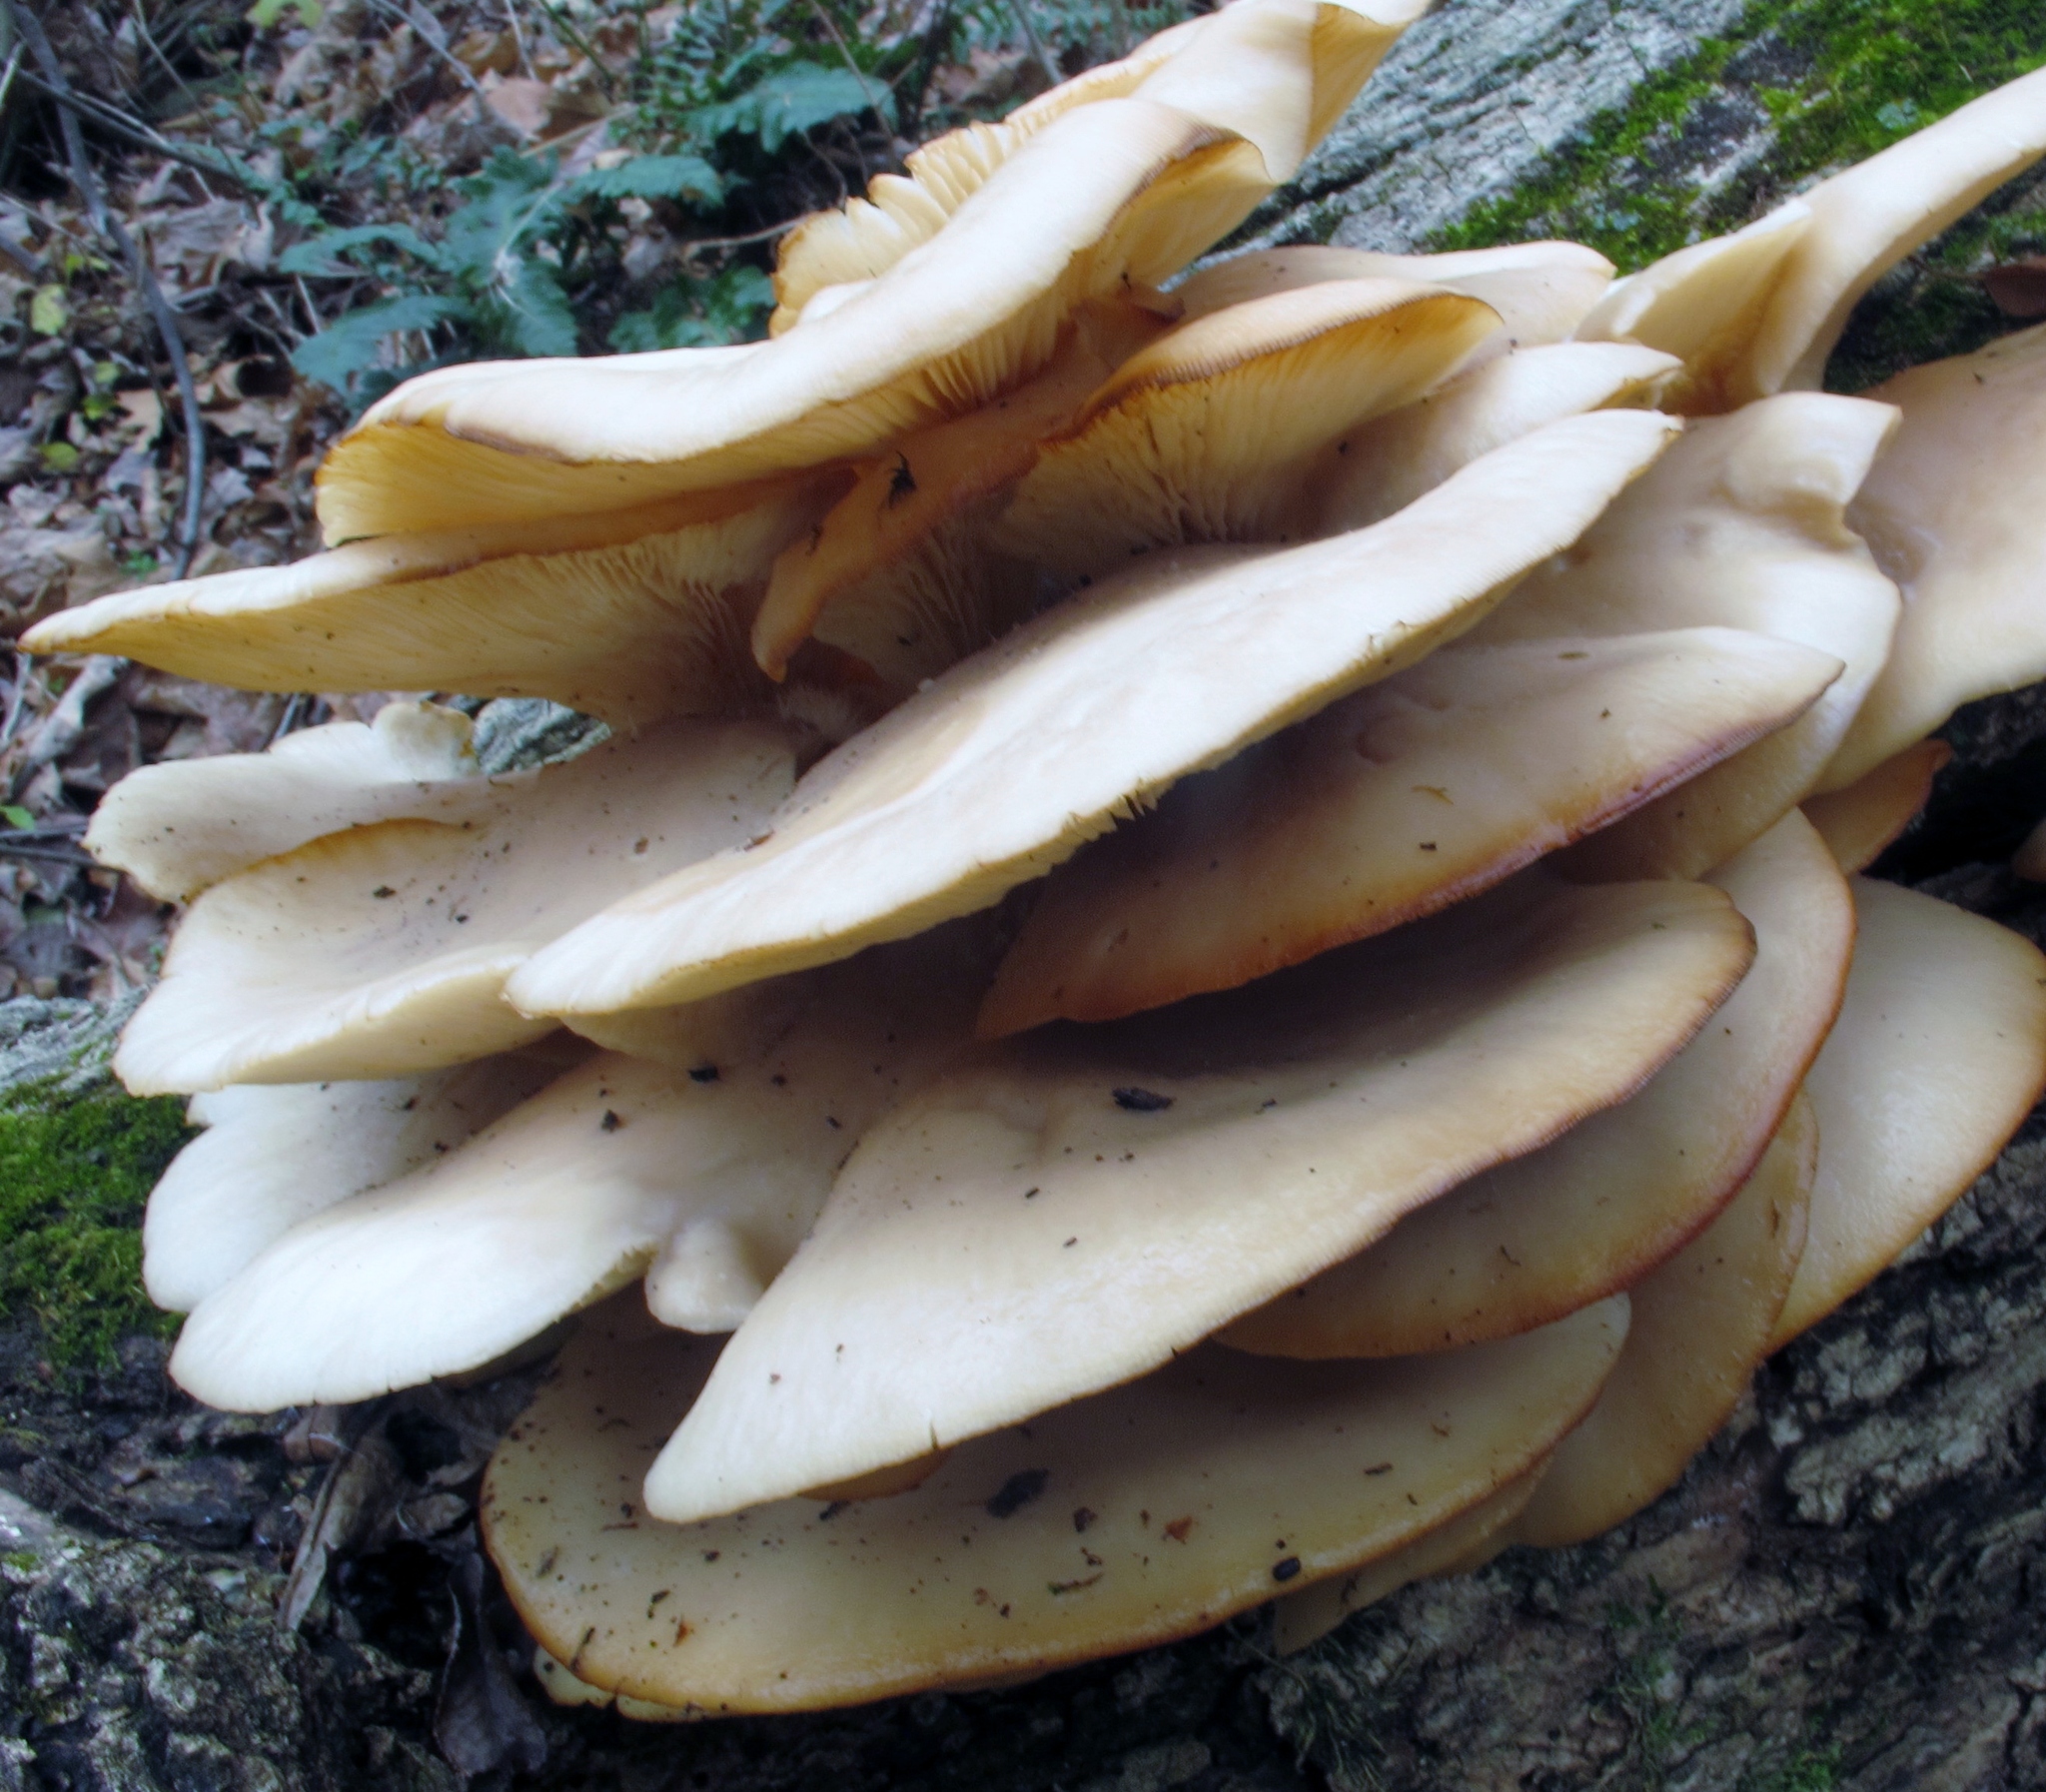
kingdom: Fungi
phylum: Basidiomycota
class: Agaricomycetes
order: Agaricales
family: Pleurotaceae
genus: Pleurotus
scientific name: Pleurotus ostreatus
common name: Oyster mushroom
